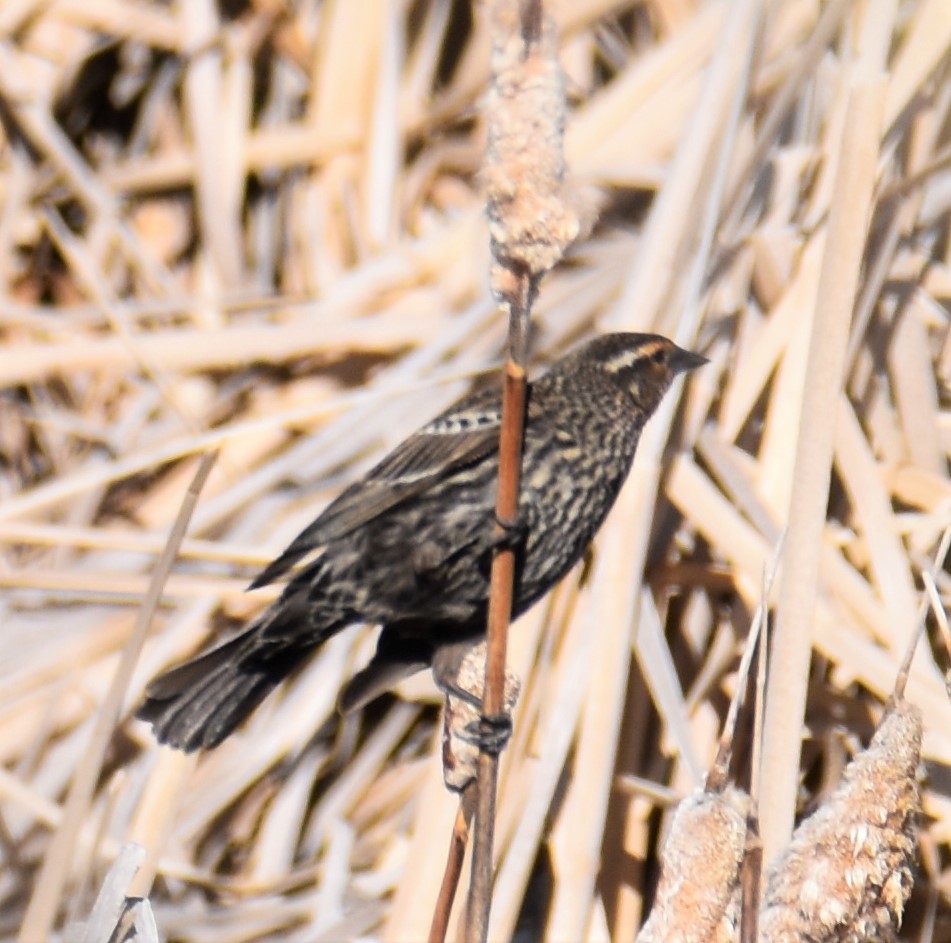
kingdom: Animalia
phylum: Chordata
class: Aves
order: Passeriformes
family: Icteridae
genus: Agelaius
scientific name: Agelaius phoeniceus
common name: Red-winged blackbird
